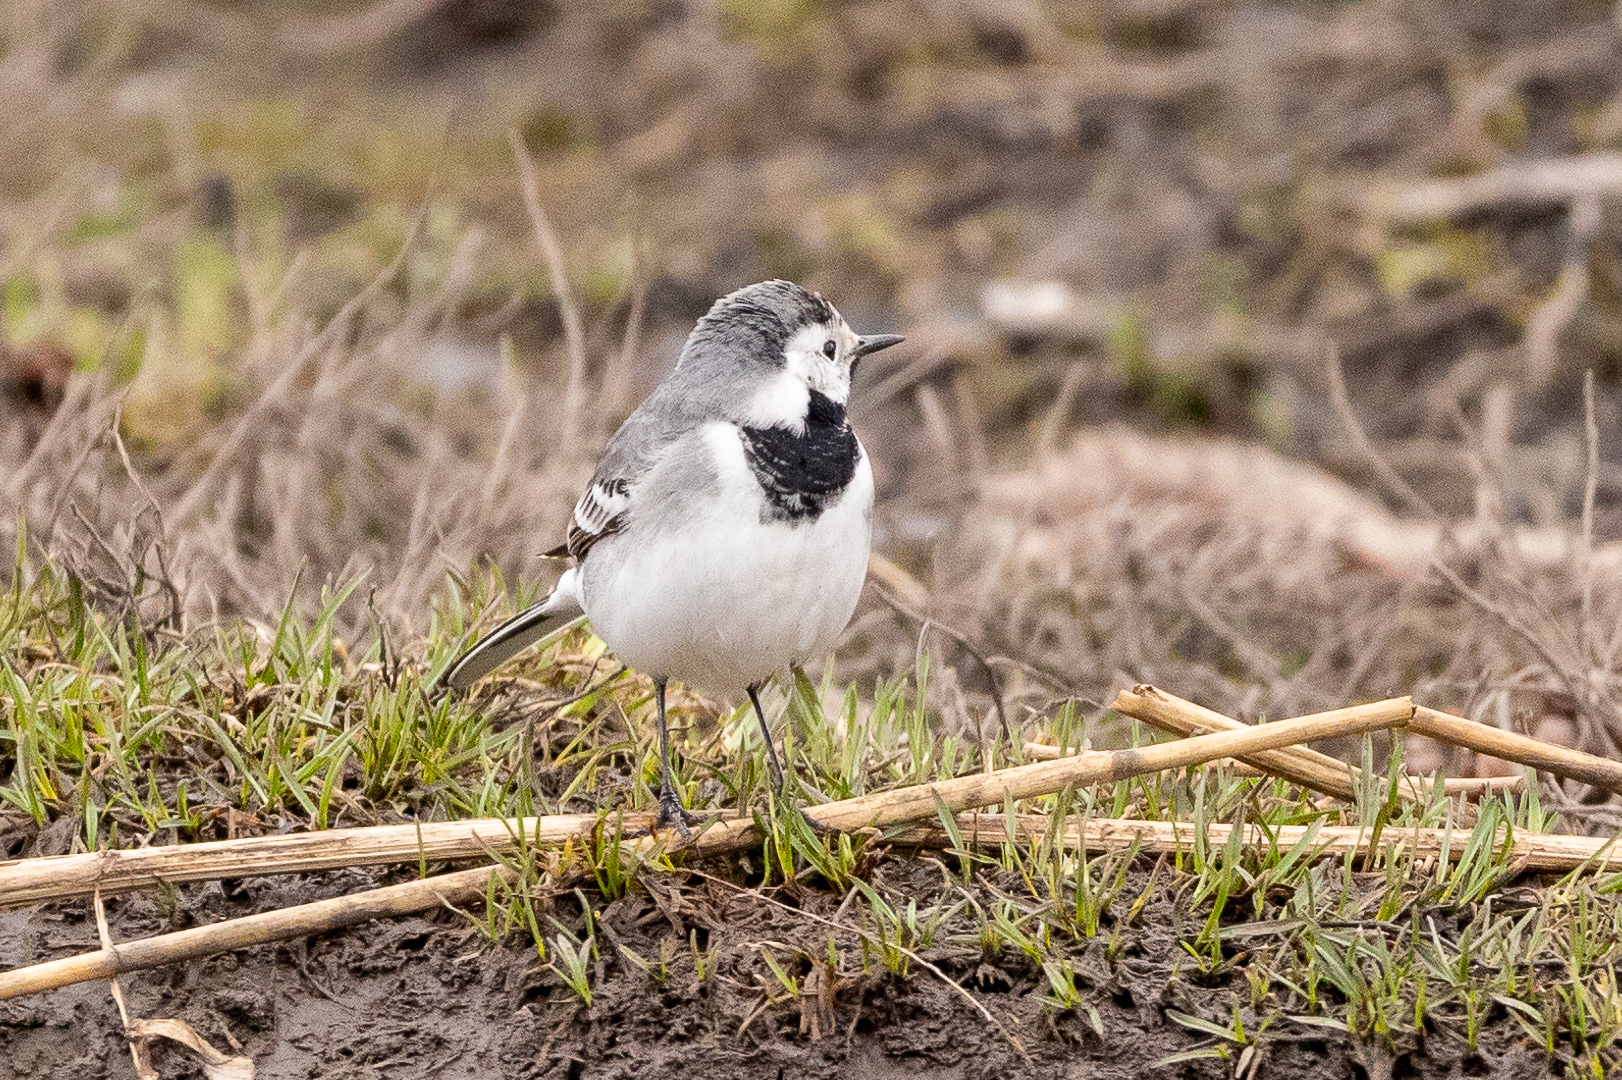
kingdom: Animalia
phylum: Chordata
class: Aves
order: Passeriformes
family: Motacillidae
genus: Motacilla
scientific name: Motacilla alba
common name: White wagtail
